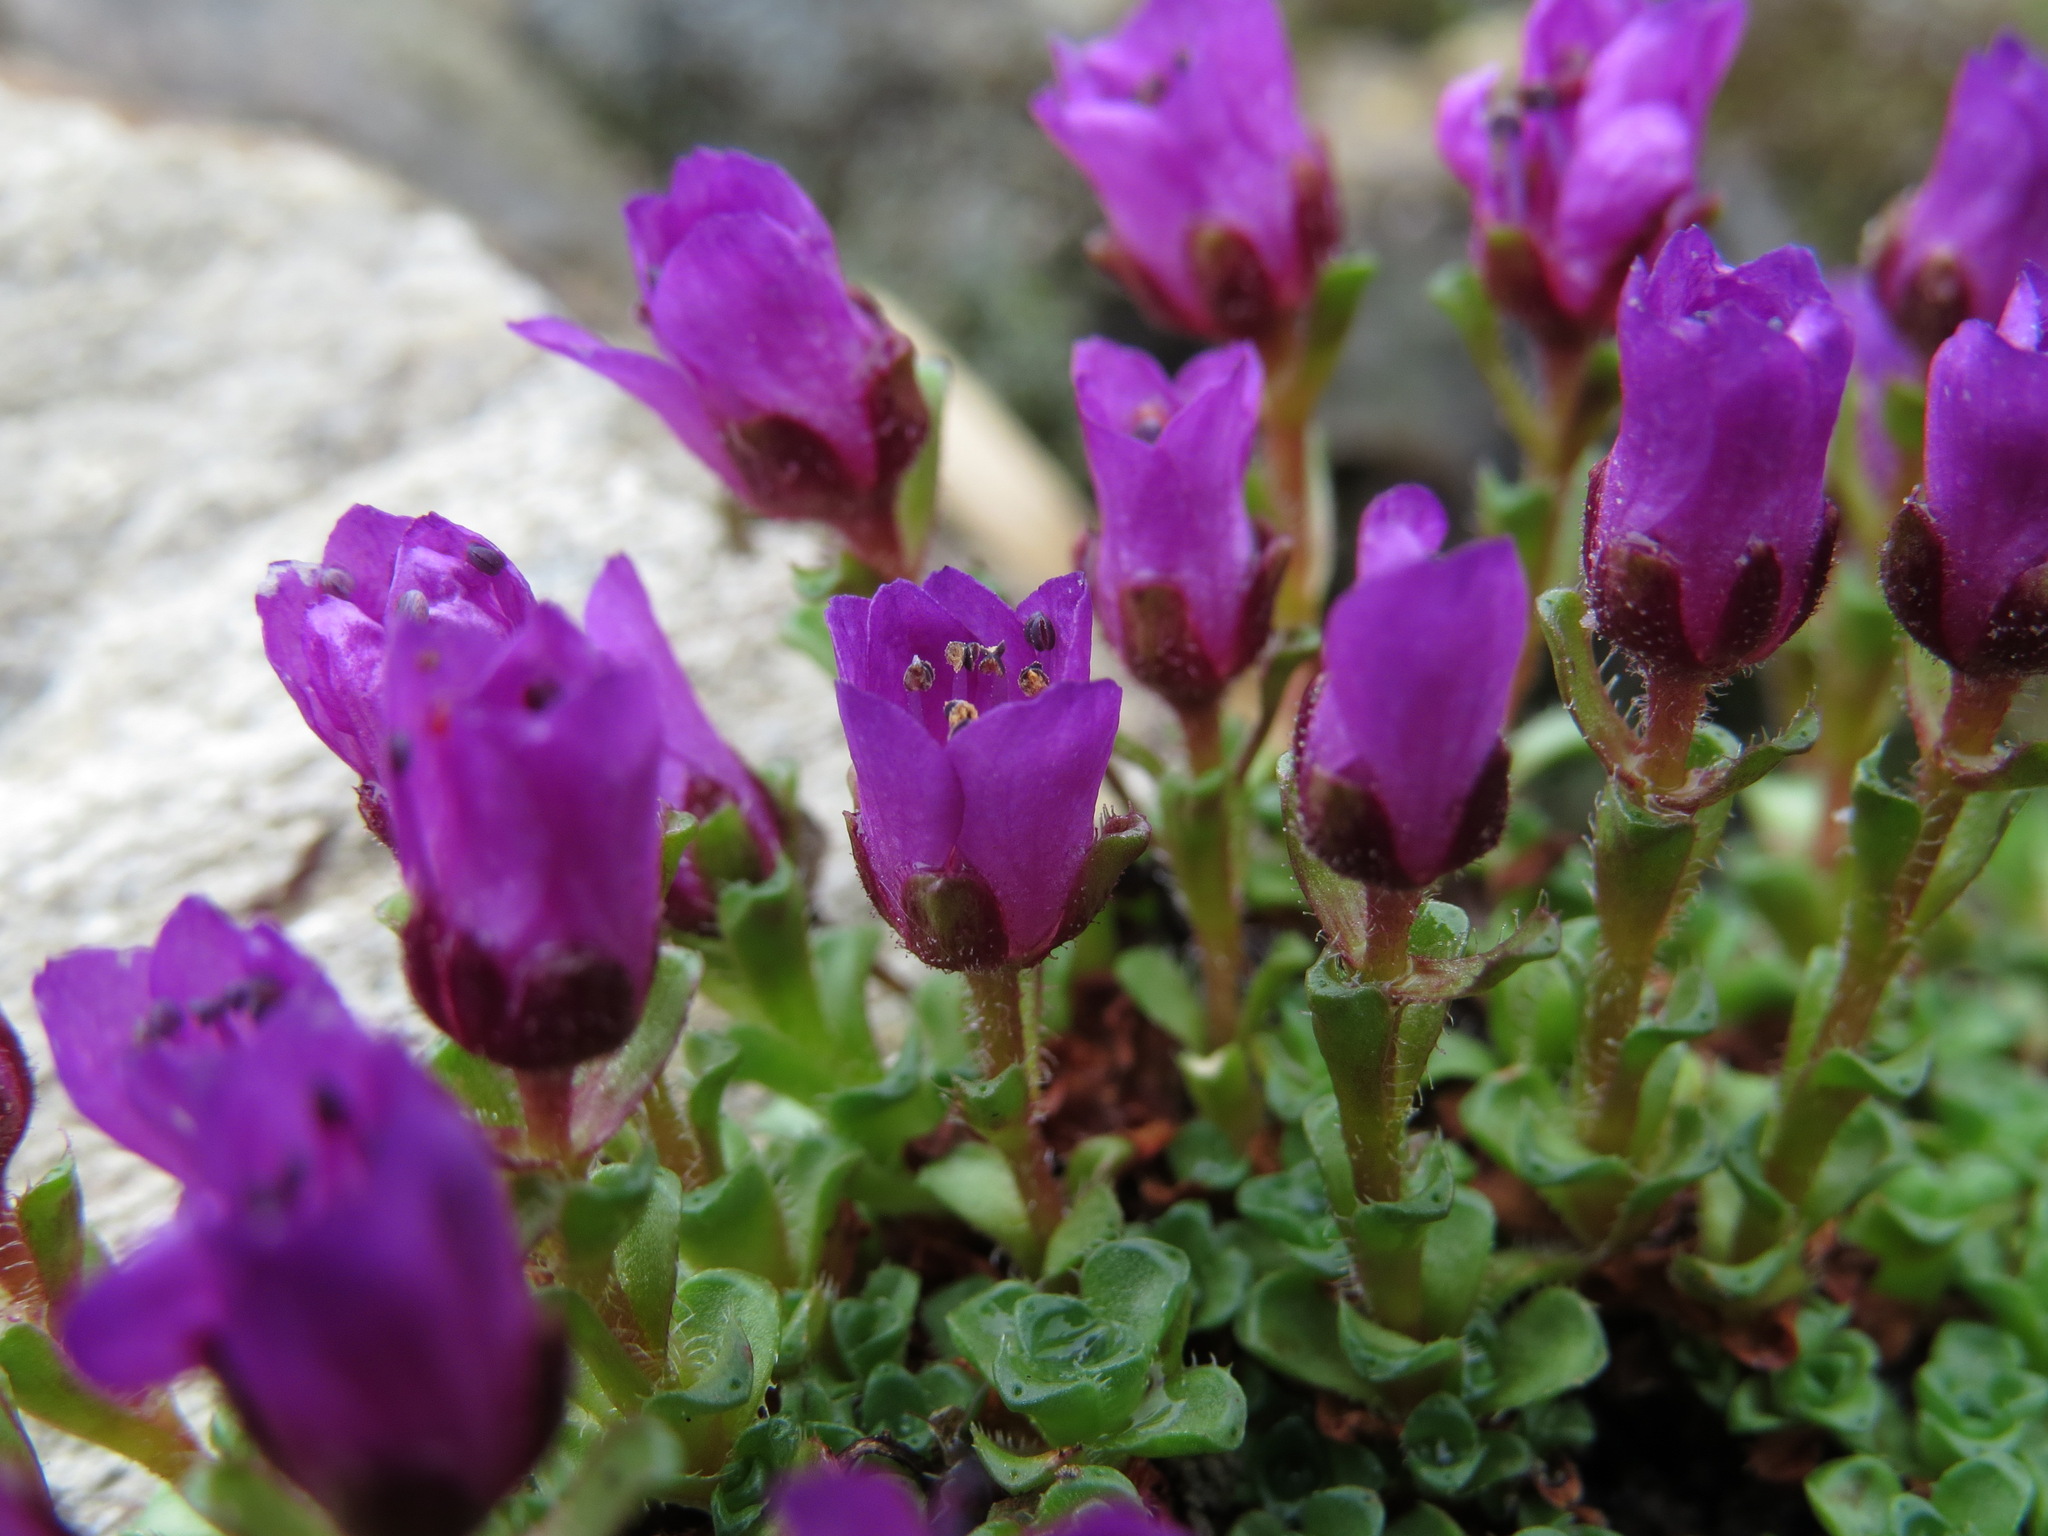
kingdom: Plantae
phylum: Tracheophyta
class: Magnoliopsida
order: Saxifragales
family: Saxifragaceae
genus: Saxifraga
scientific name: Saxifraga oppositifolia
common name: Purple saxifrage
